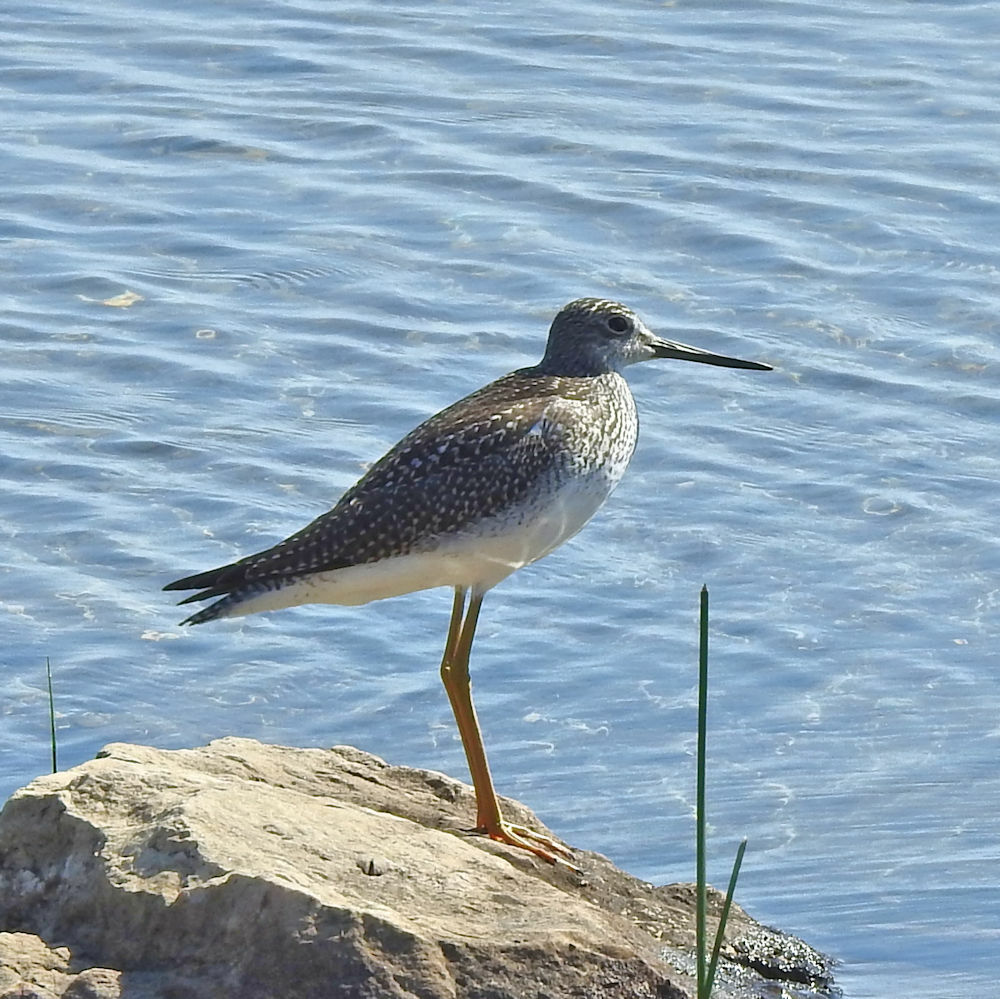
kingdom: Animalia
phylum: Chordata
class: Aves
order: Charadriiformes
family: Scolopacidae
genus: Tringa
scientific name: Tringa melanoleuca
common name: Greater yellowlegs
